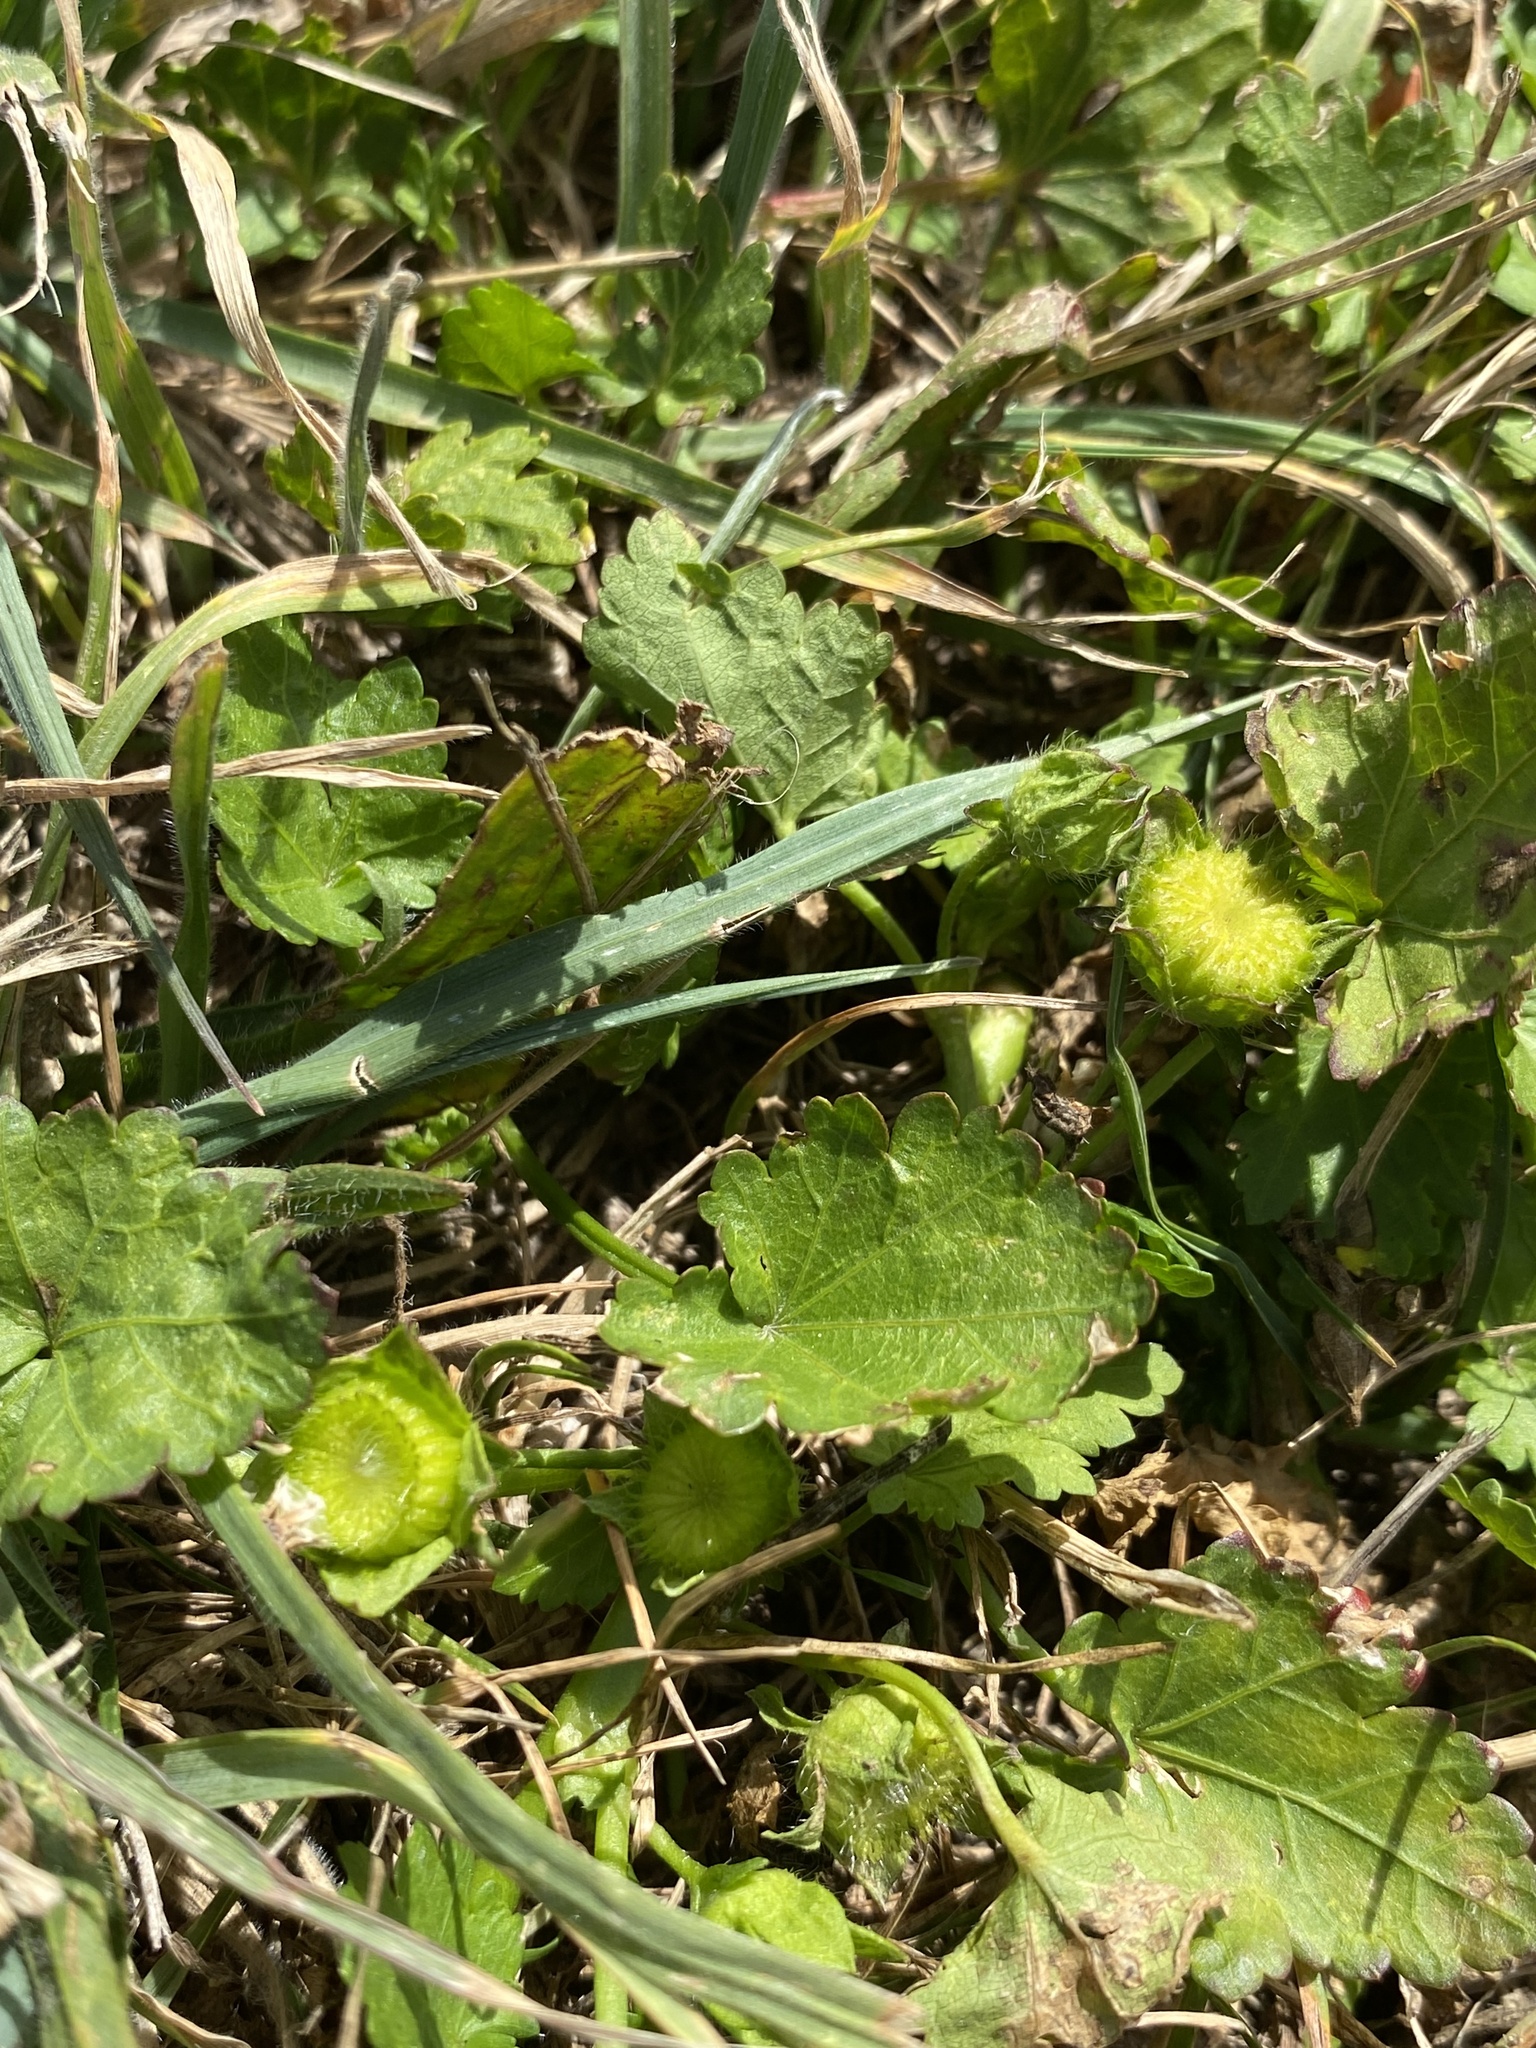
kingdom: Plantae
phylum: Tracheophyta
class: Magnoliopsida
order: Malvales
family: Malvaceae
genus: Modiola
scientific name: Modiola caroliniana
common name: Carolina bristlemallow
